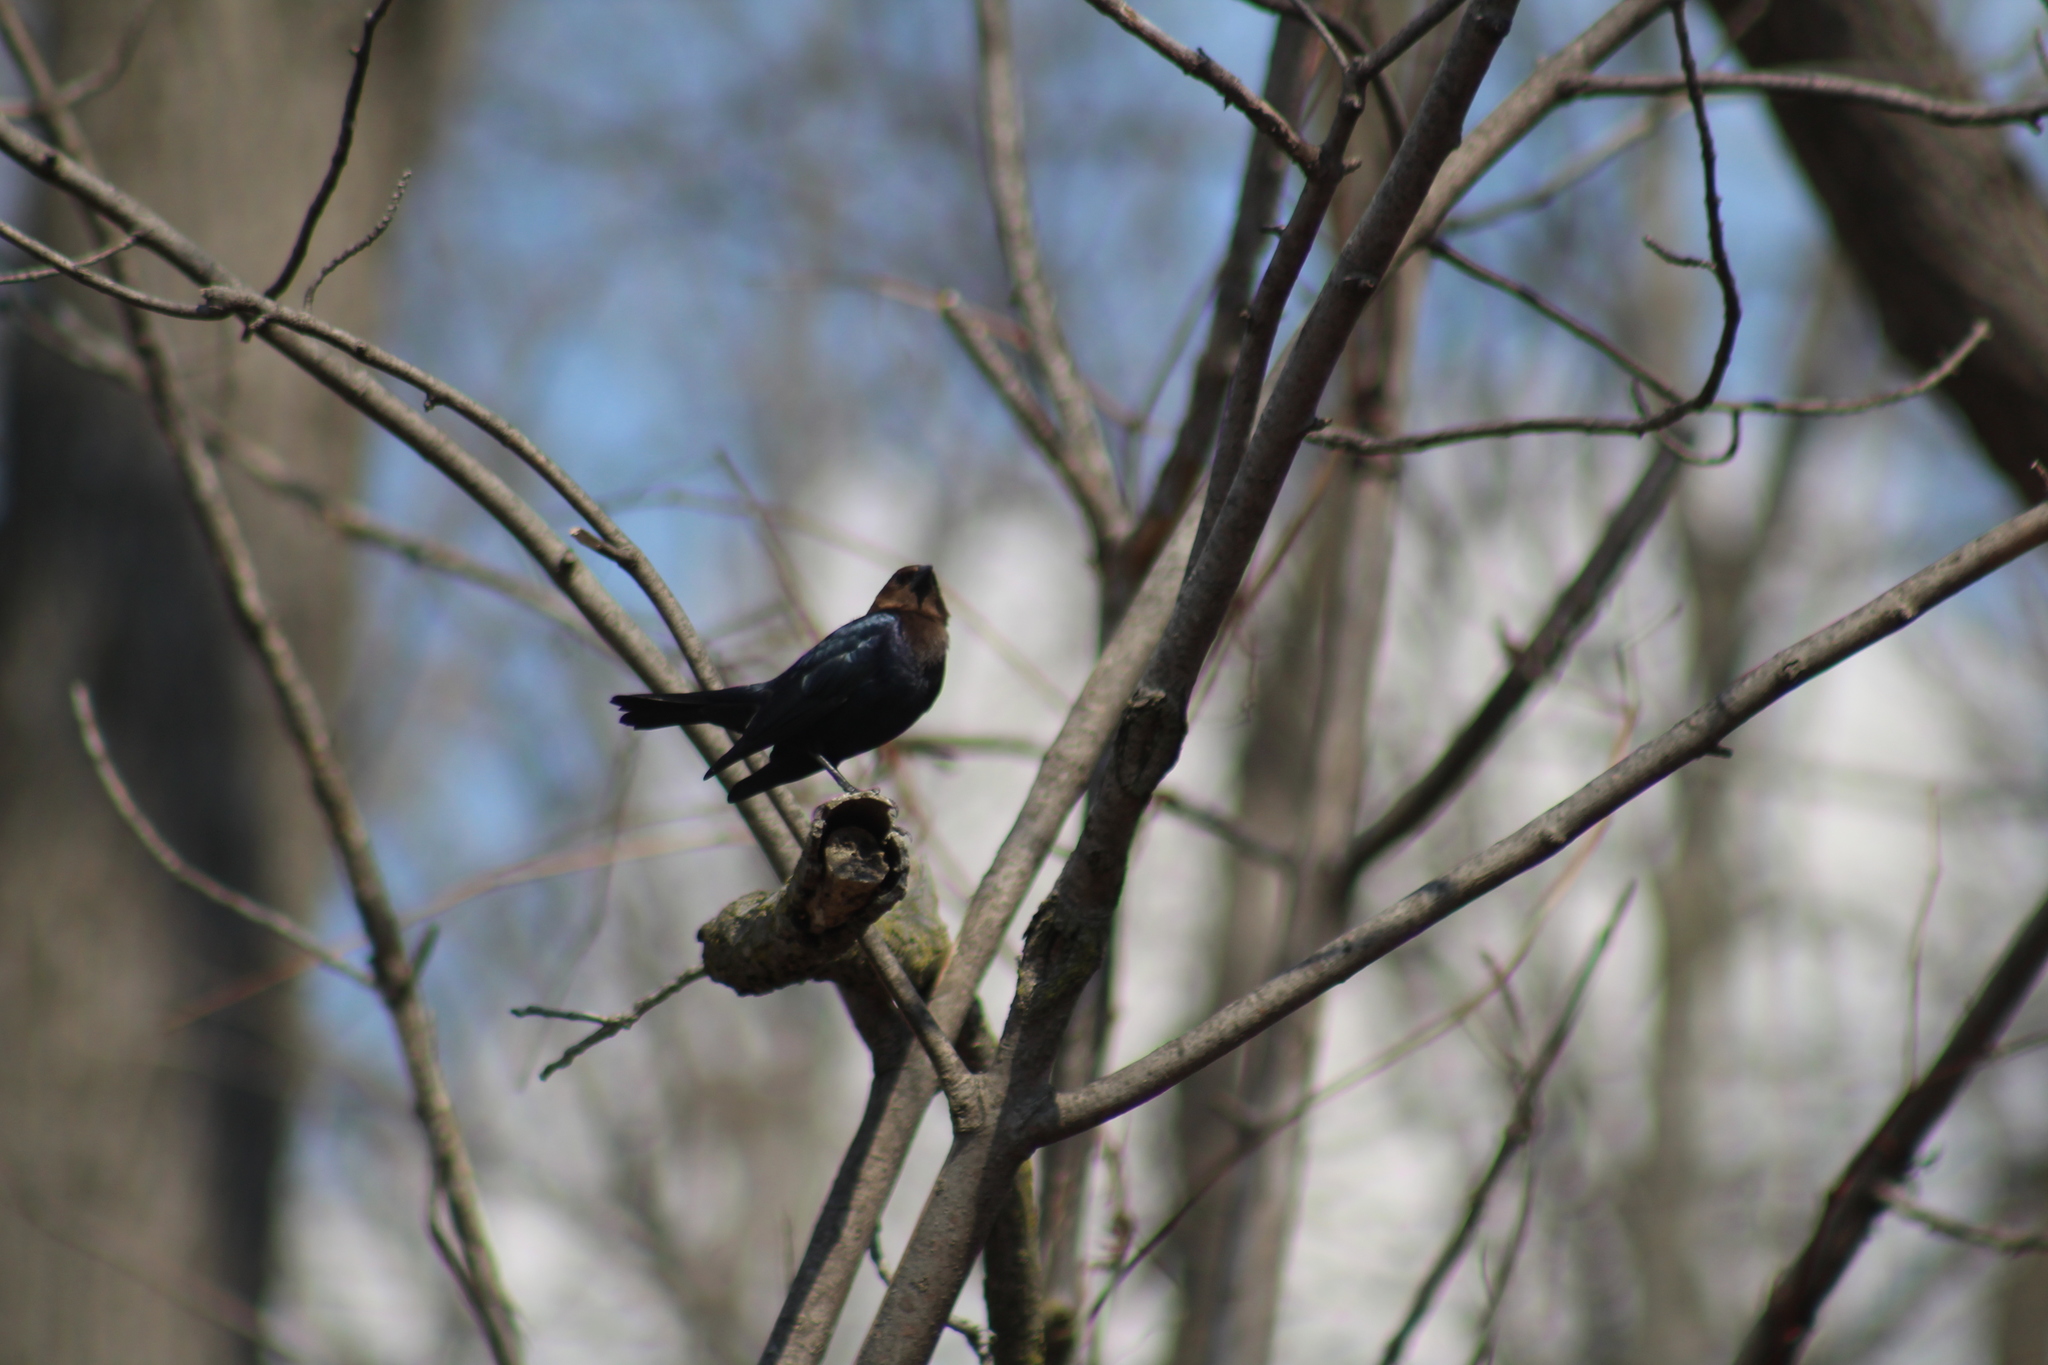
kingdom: Animalia
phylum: Chordata
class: Aves
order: Passeriformes
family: Icteridae
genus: Molothrus
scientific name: Molothrus ater
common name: Brown-headed cowbird
